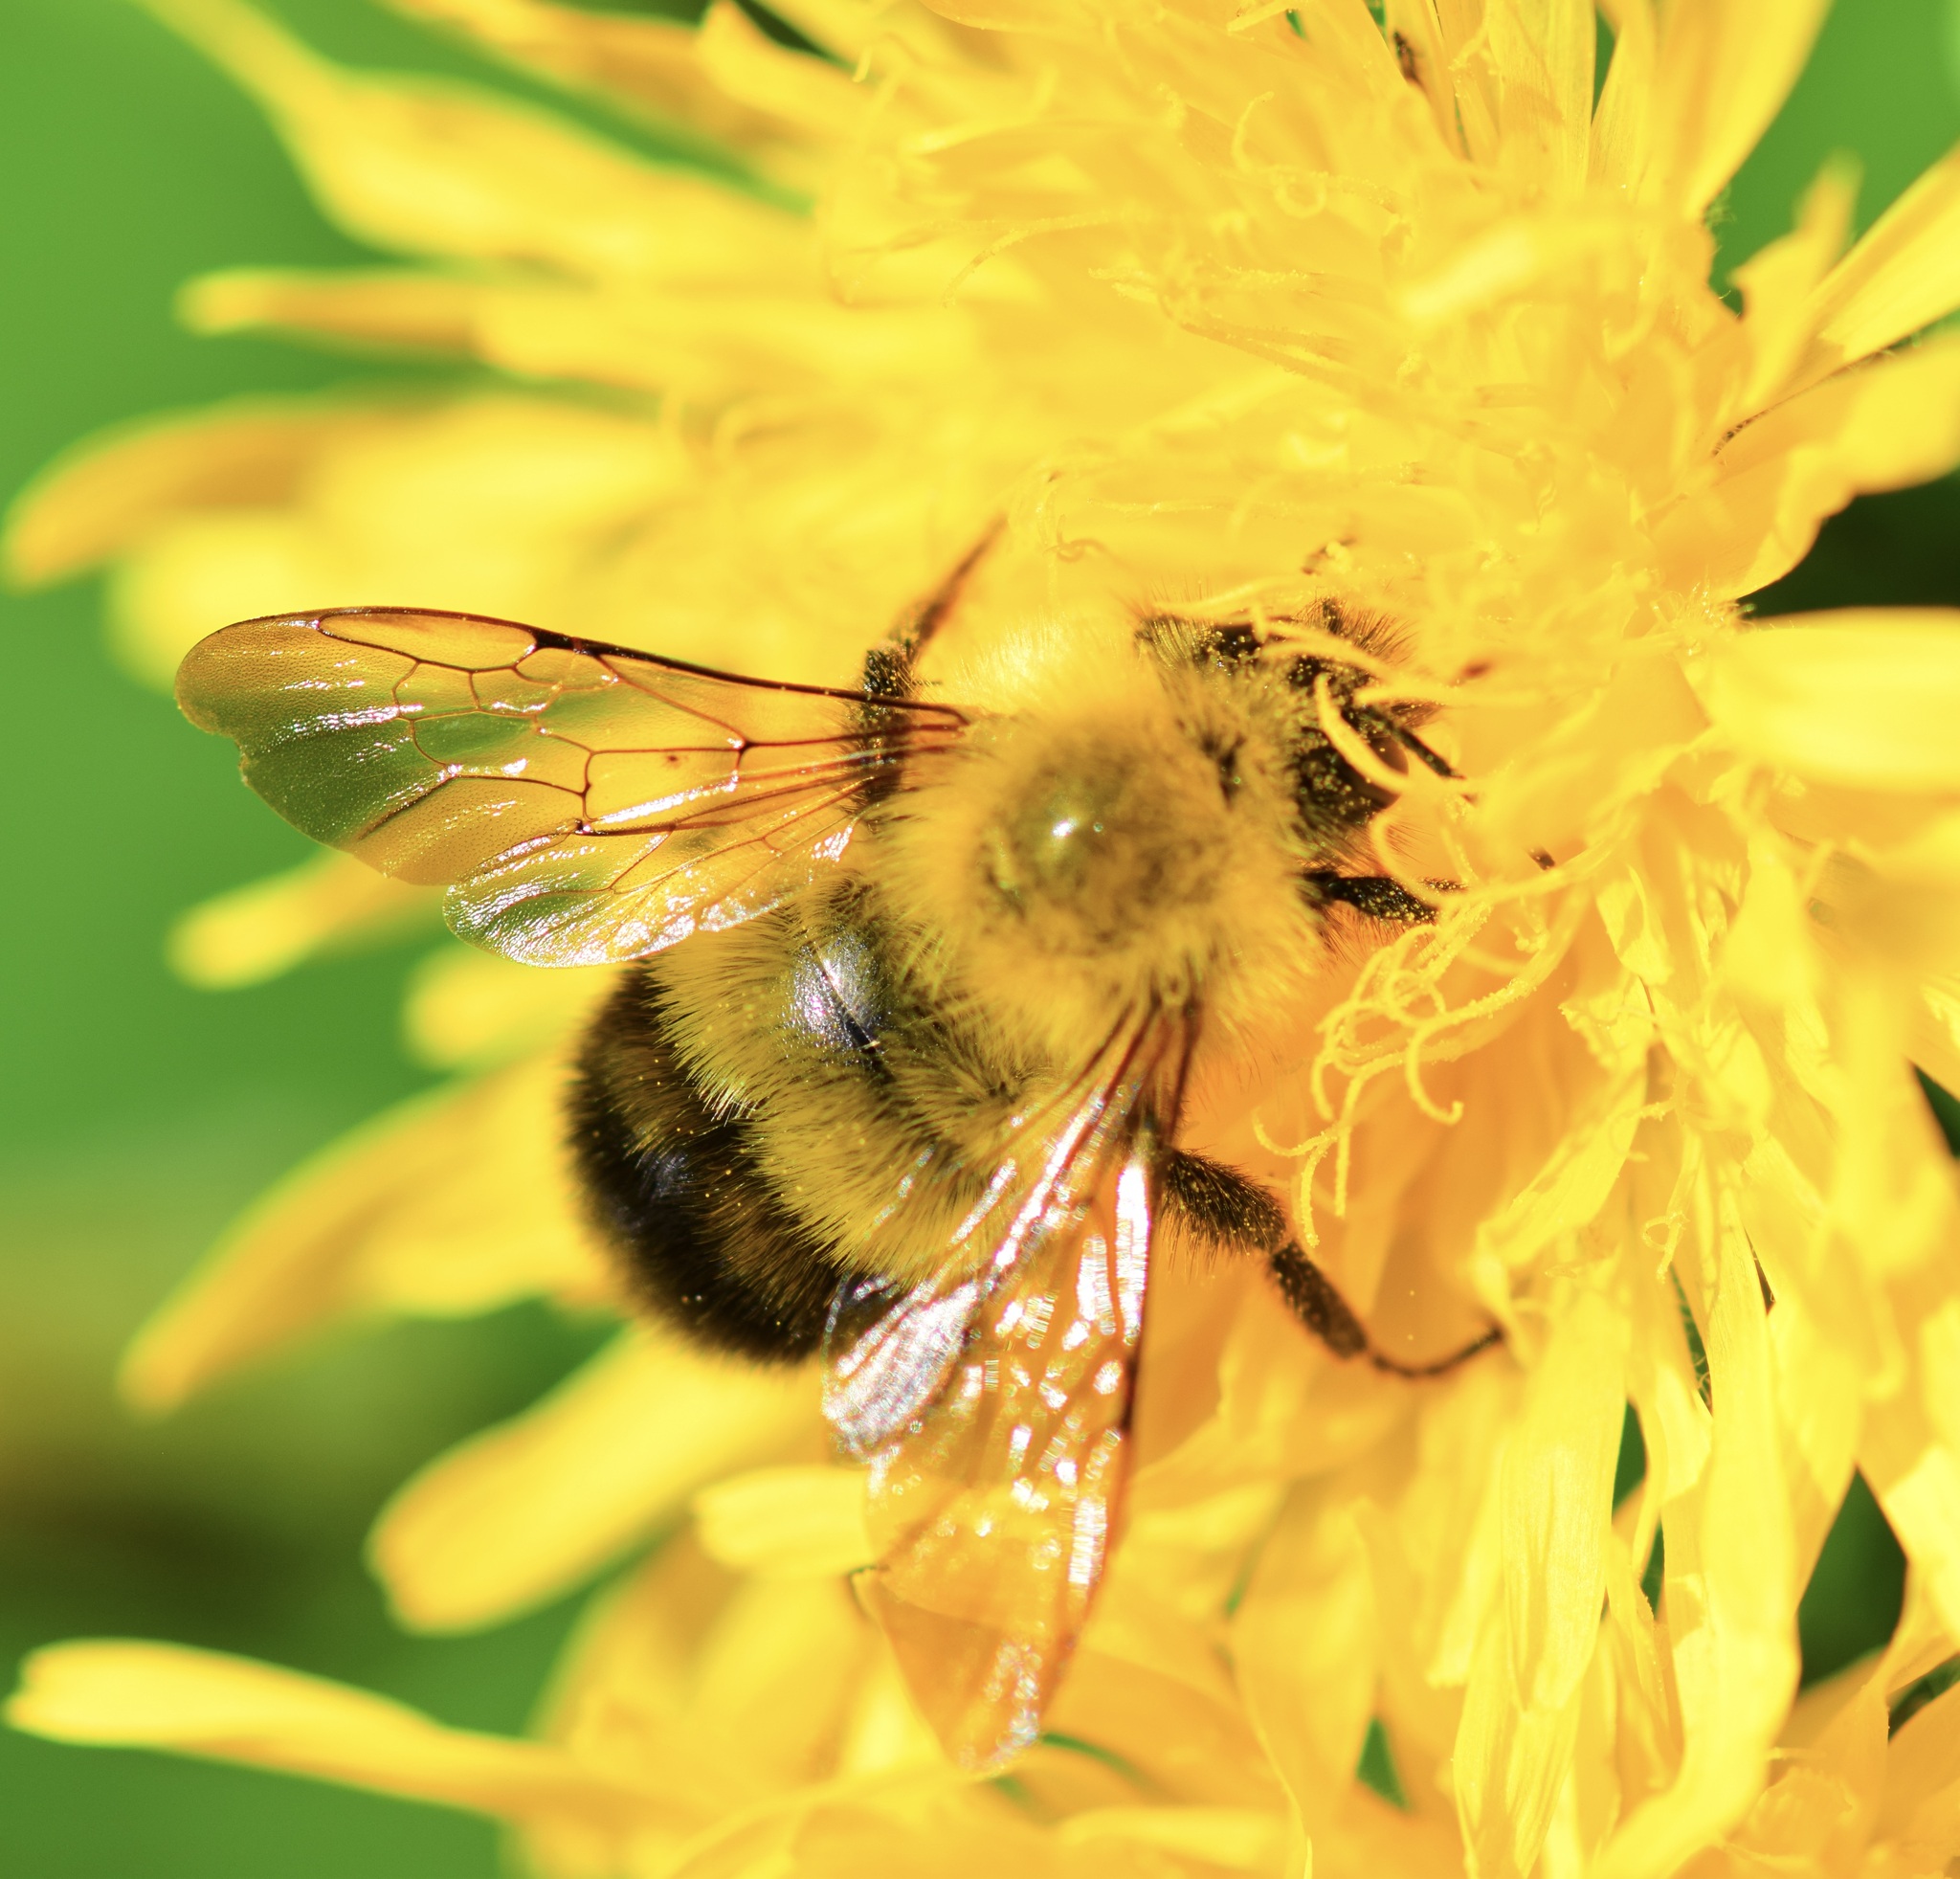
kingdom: Animalia
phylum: Arthropoda
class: Insecta
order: Hymenoptera
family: Apidae
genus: Bombus
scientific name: Bombus perplexus
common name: Confusing bumble bee
